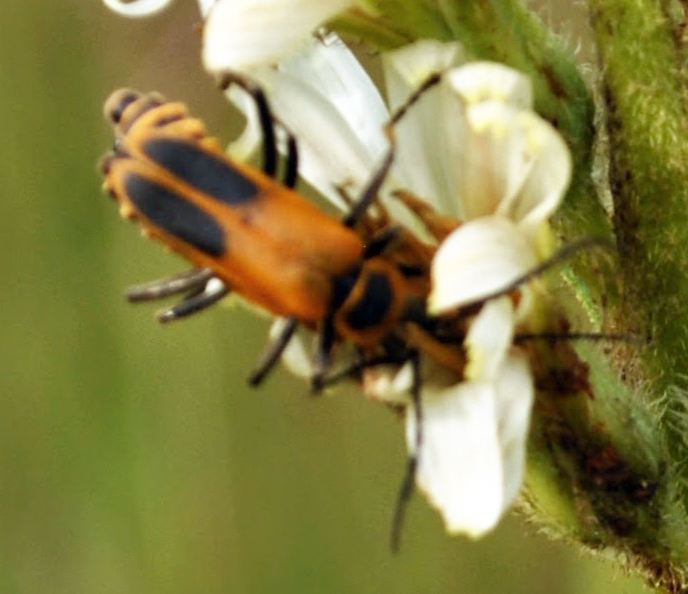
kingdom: Animalia
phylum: Arthropoda
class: Insecta
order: Coleoptera
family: Cantharidae
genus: Chauliognathus
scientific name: Chauliognathus pensylvanicus
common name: Goldenrod soldier beetle
